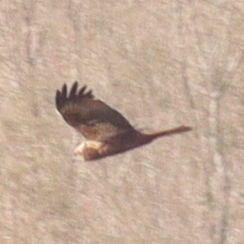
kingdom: Animalia
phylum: Chordata
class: Aves
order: Accipitriformes
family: Accipitridae
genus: Circus
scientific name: Circus aeruginosus
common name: Western marsh harrier
